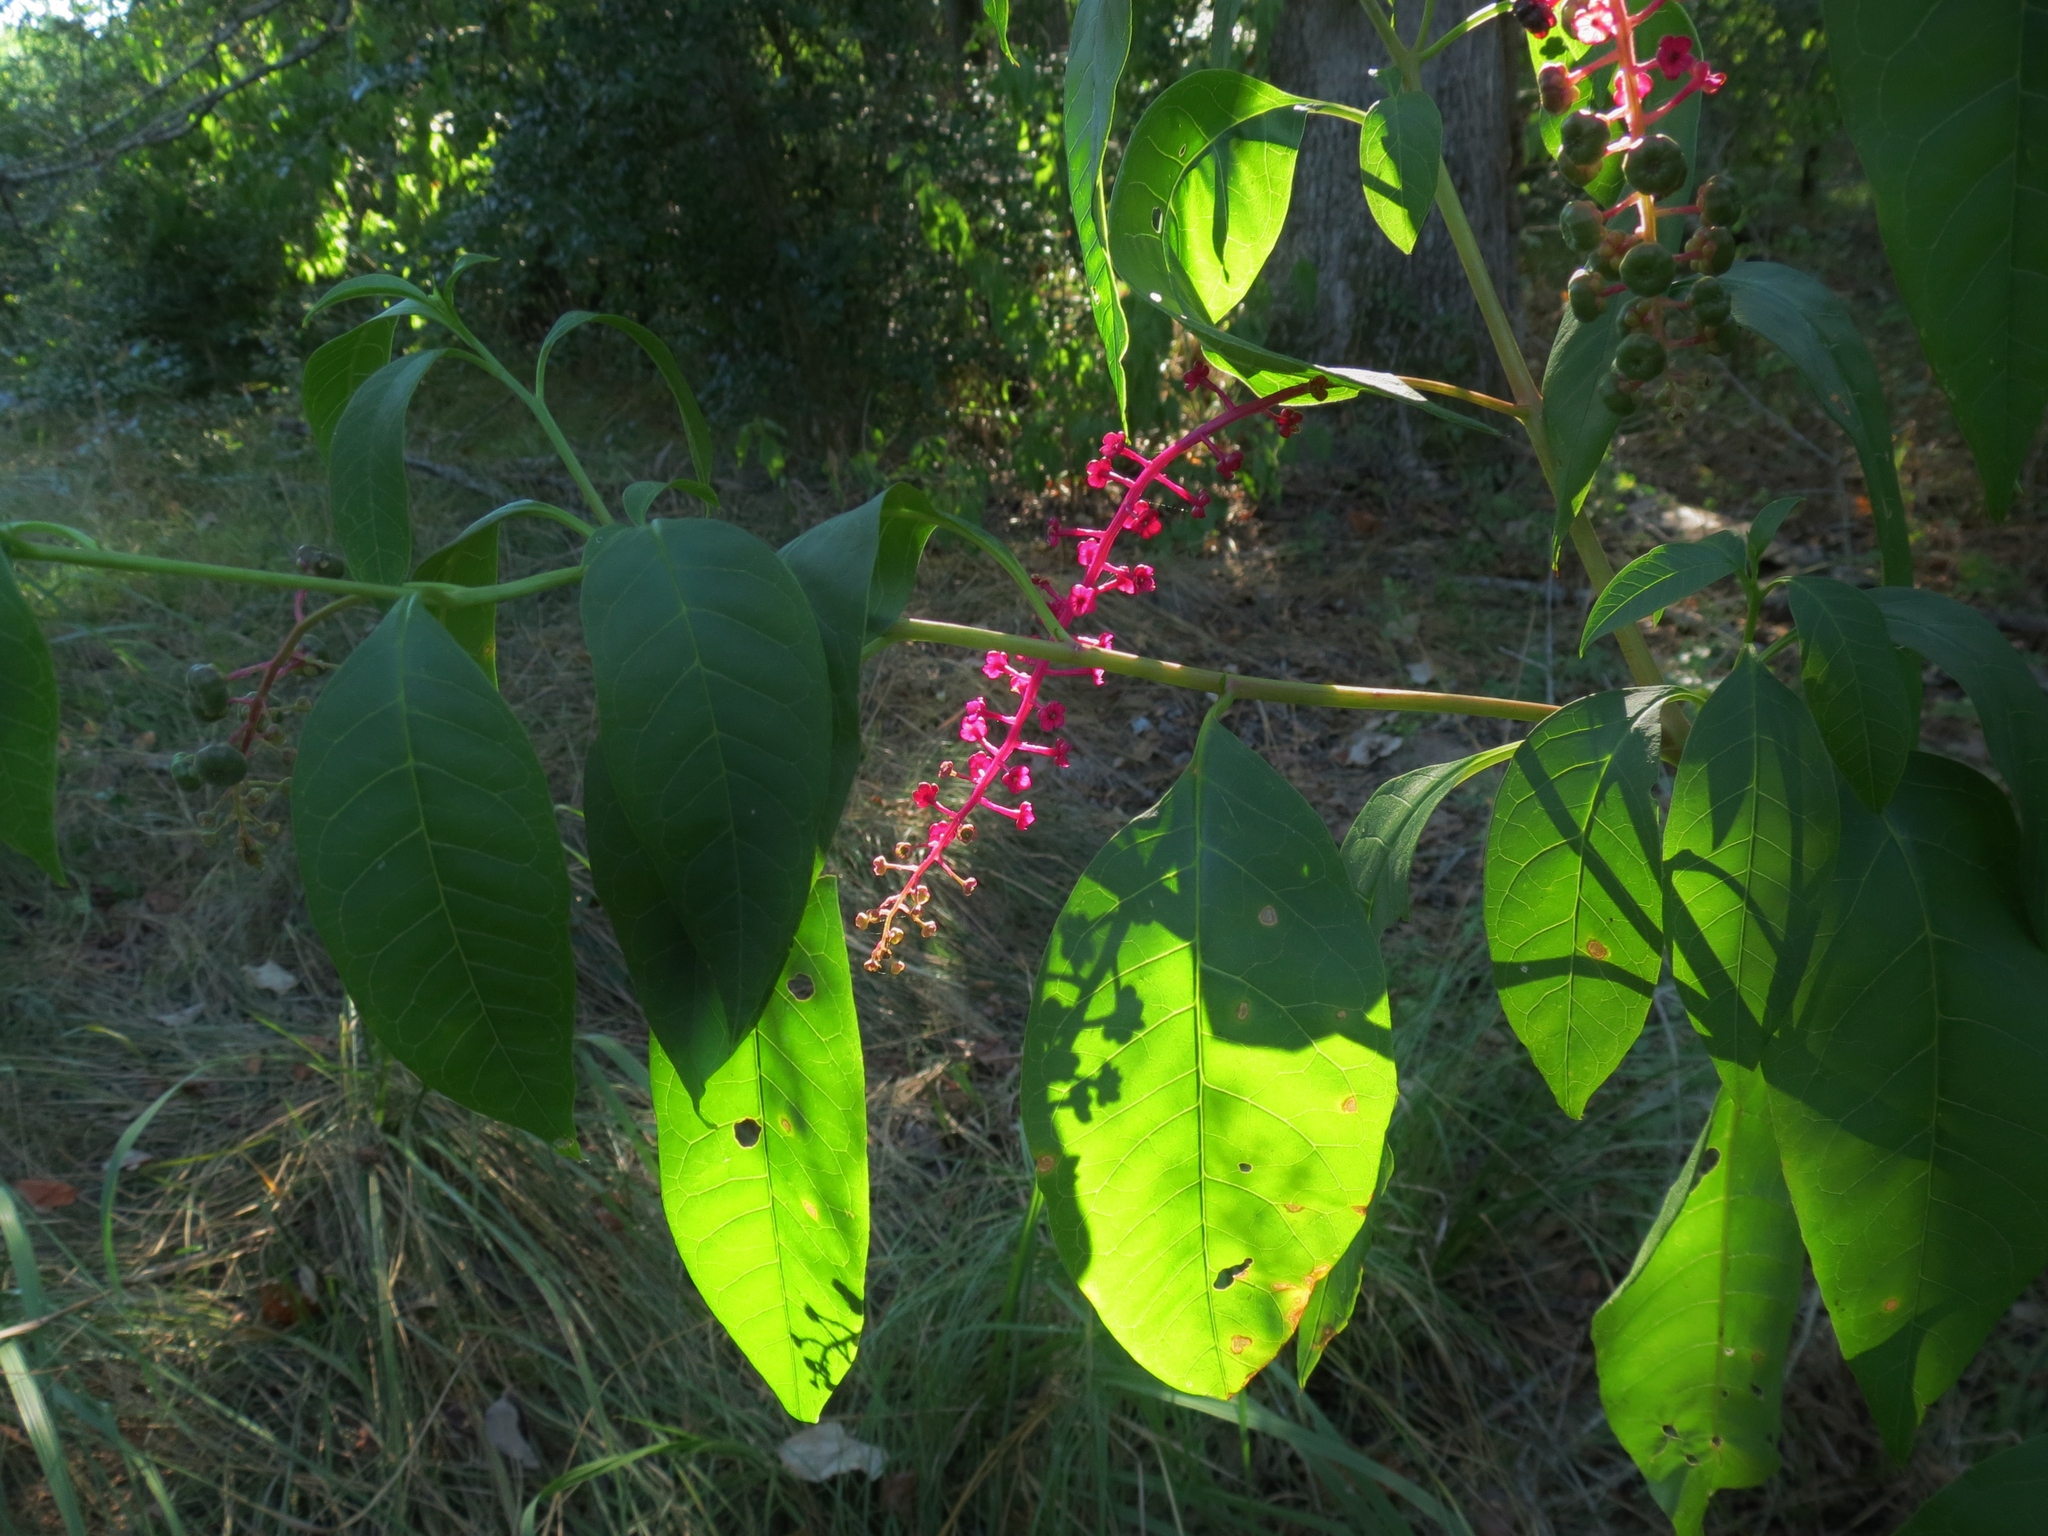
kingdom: Plantae
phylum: Tracheophyta
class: Magnoliopsida
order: Caryophyllales
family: Phytolaccaceae
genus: Phytolacca
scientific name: Phytolacca americana
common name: American pokeweed
